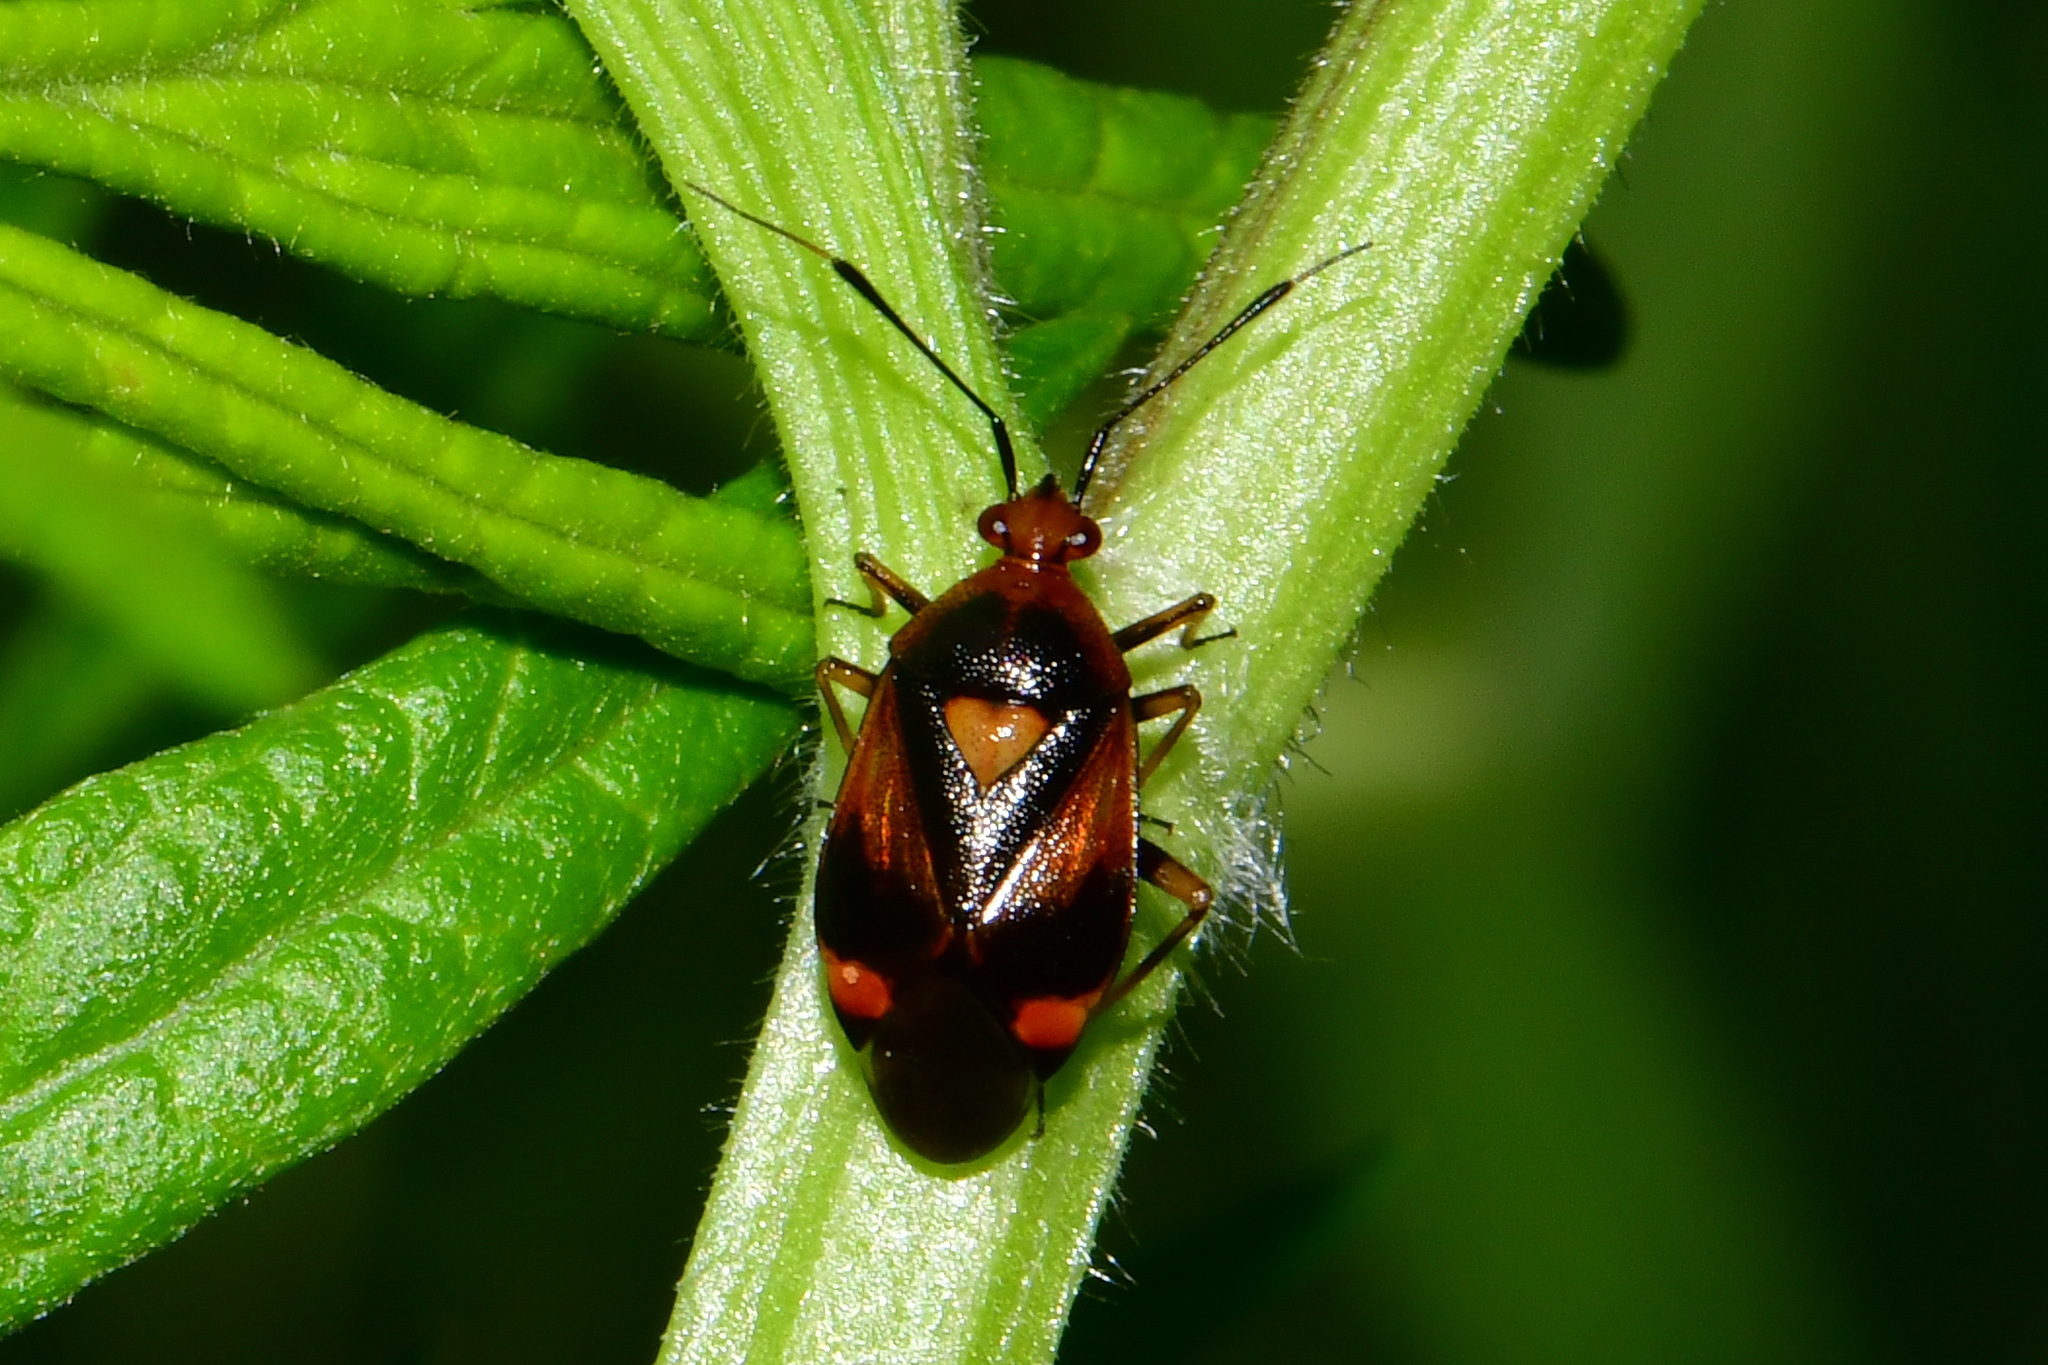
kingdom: Animalia
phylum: Arthropoda
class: Insecta
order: Hemiptera
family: Miridae
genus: Deraeocoris
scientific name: Deraeocoris ruber
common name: Plant bug
